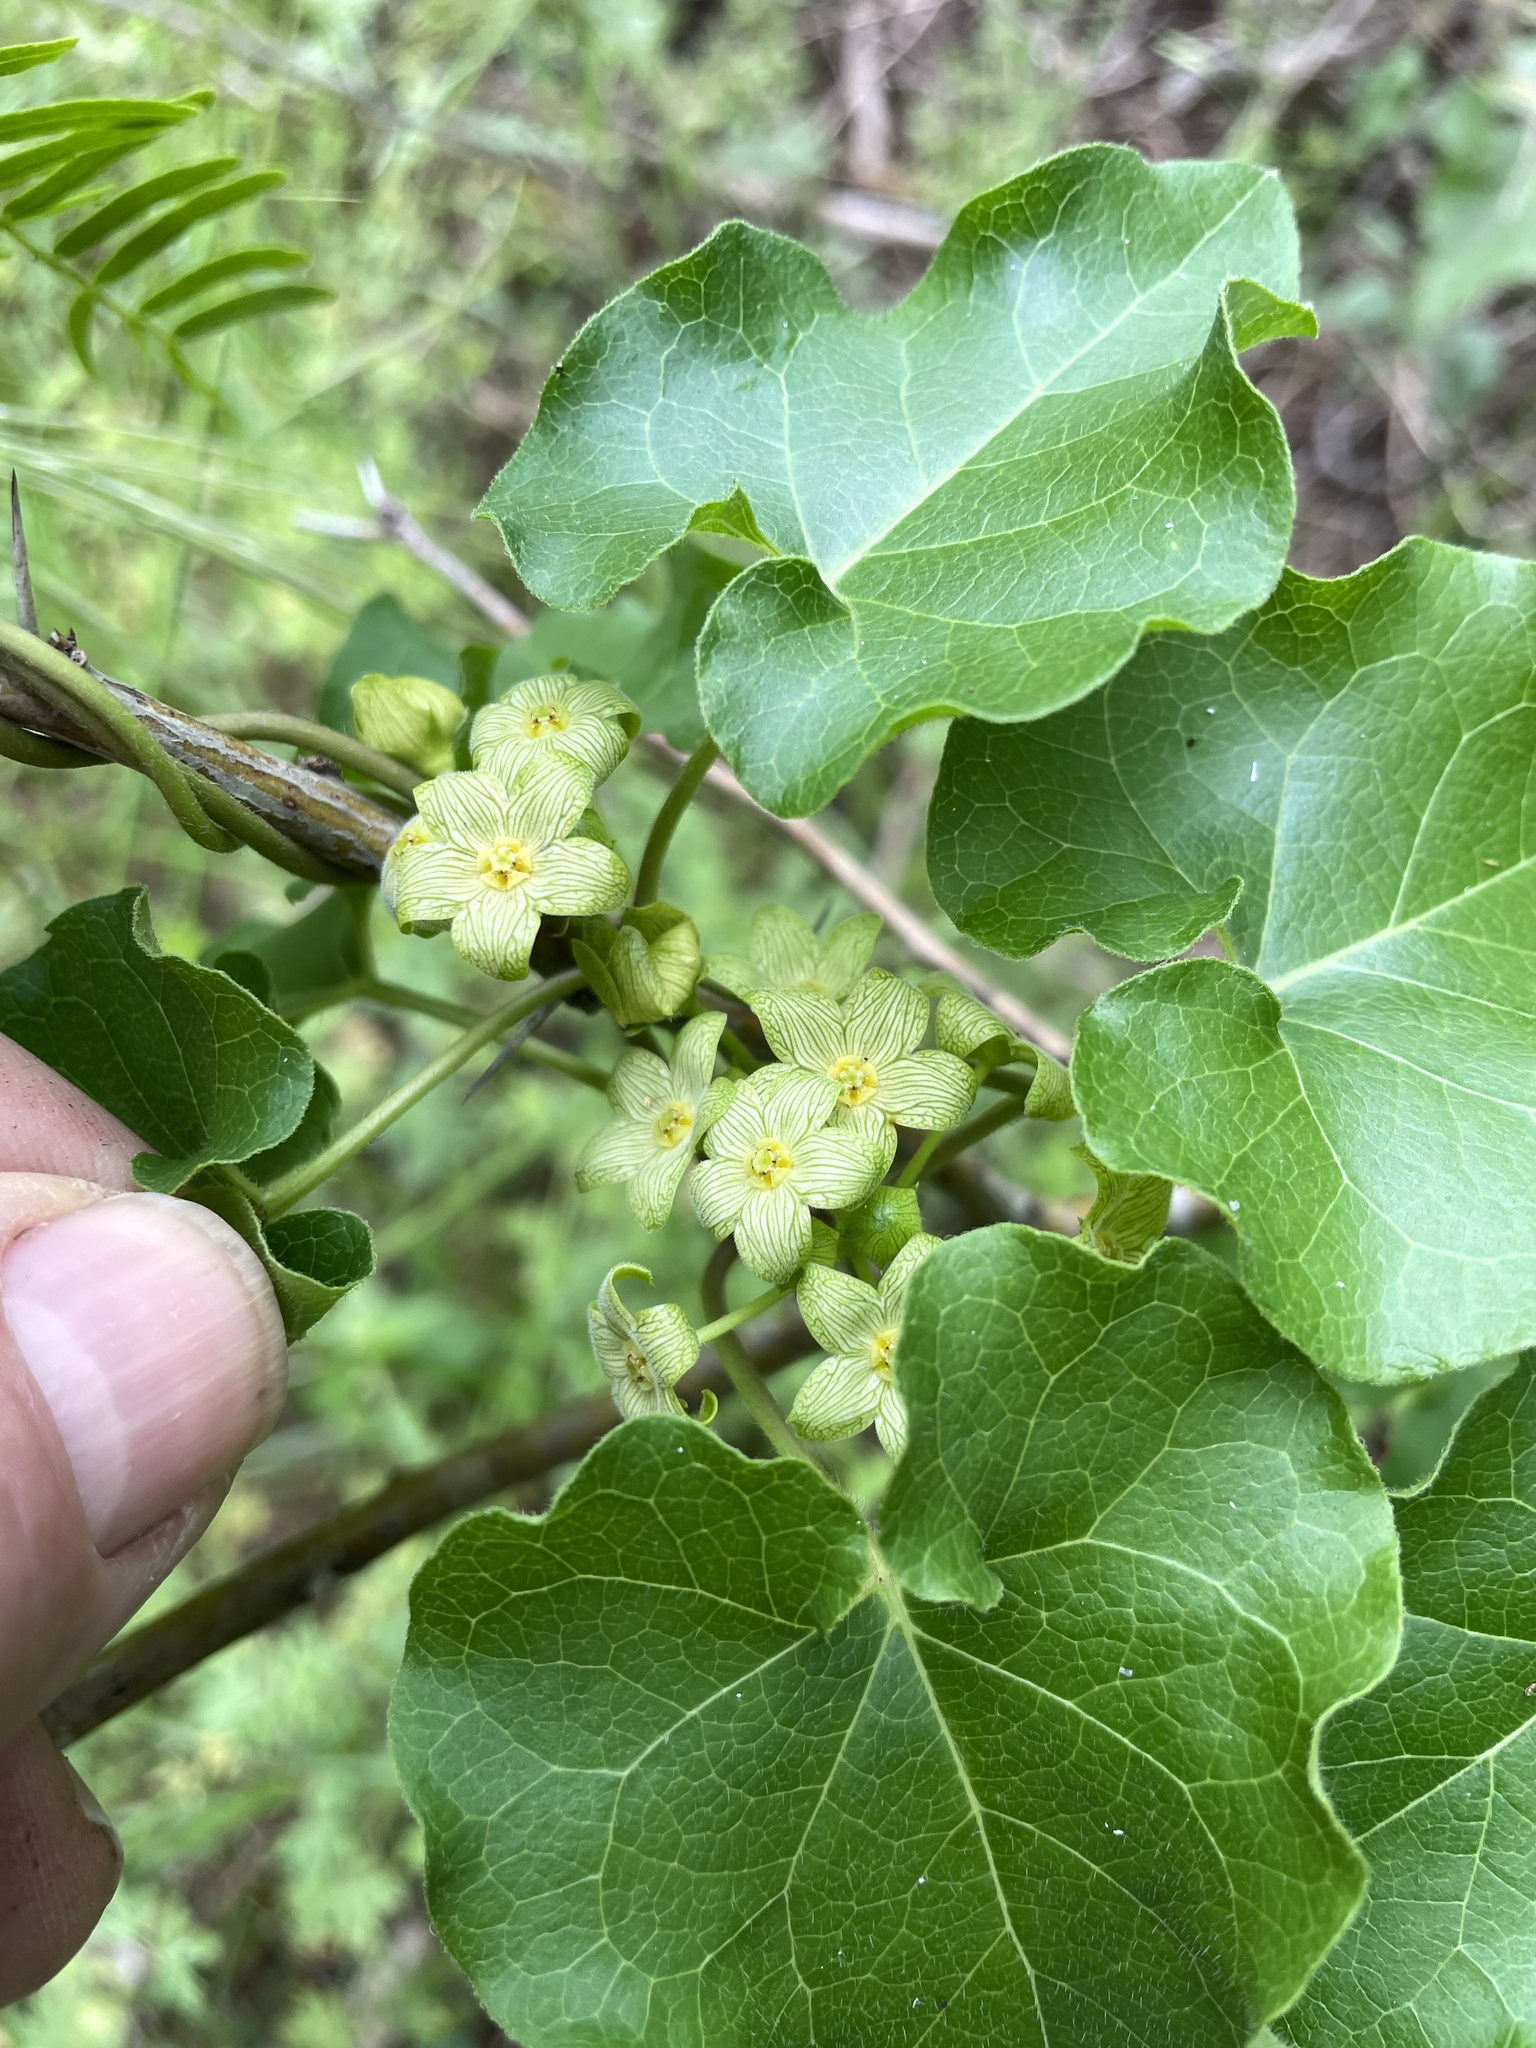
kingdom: Plantae
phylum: Tracheophyta
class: Magnoliopsida
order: Gentianales
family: Apocynaceae
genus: Matelea
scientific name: Matelea edwardsensis
